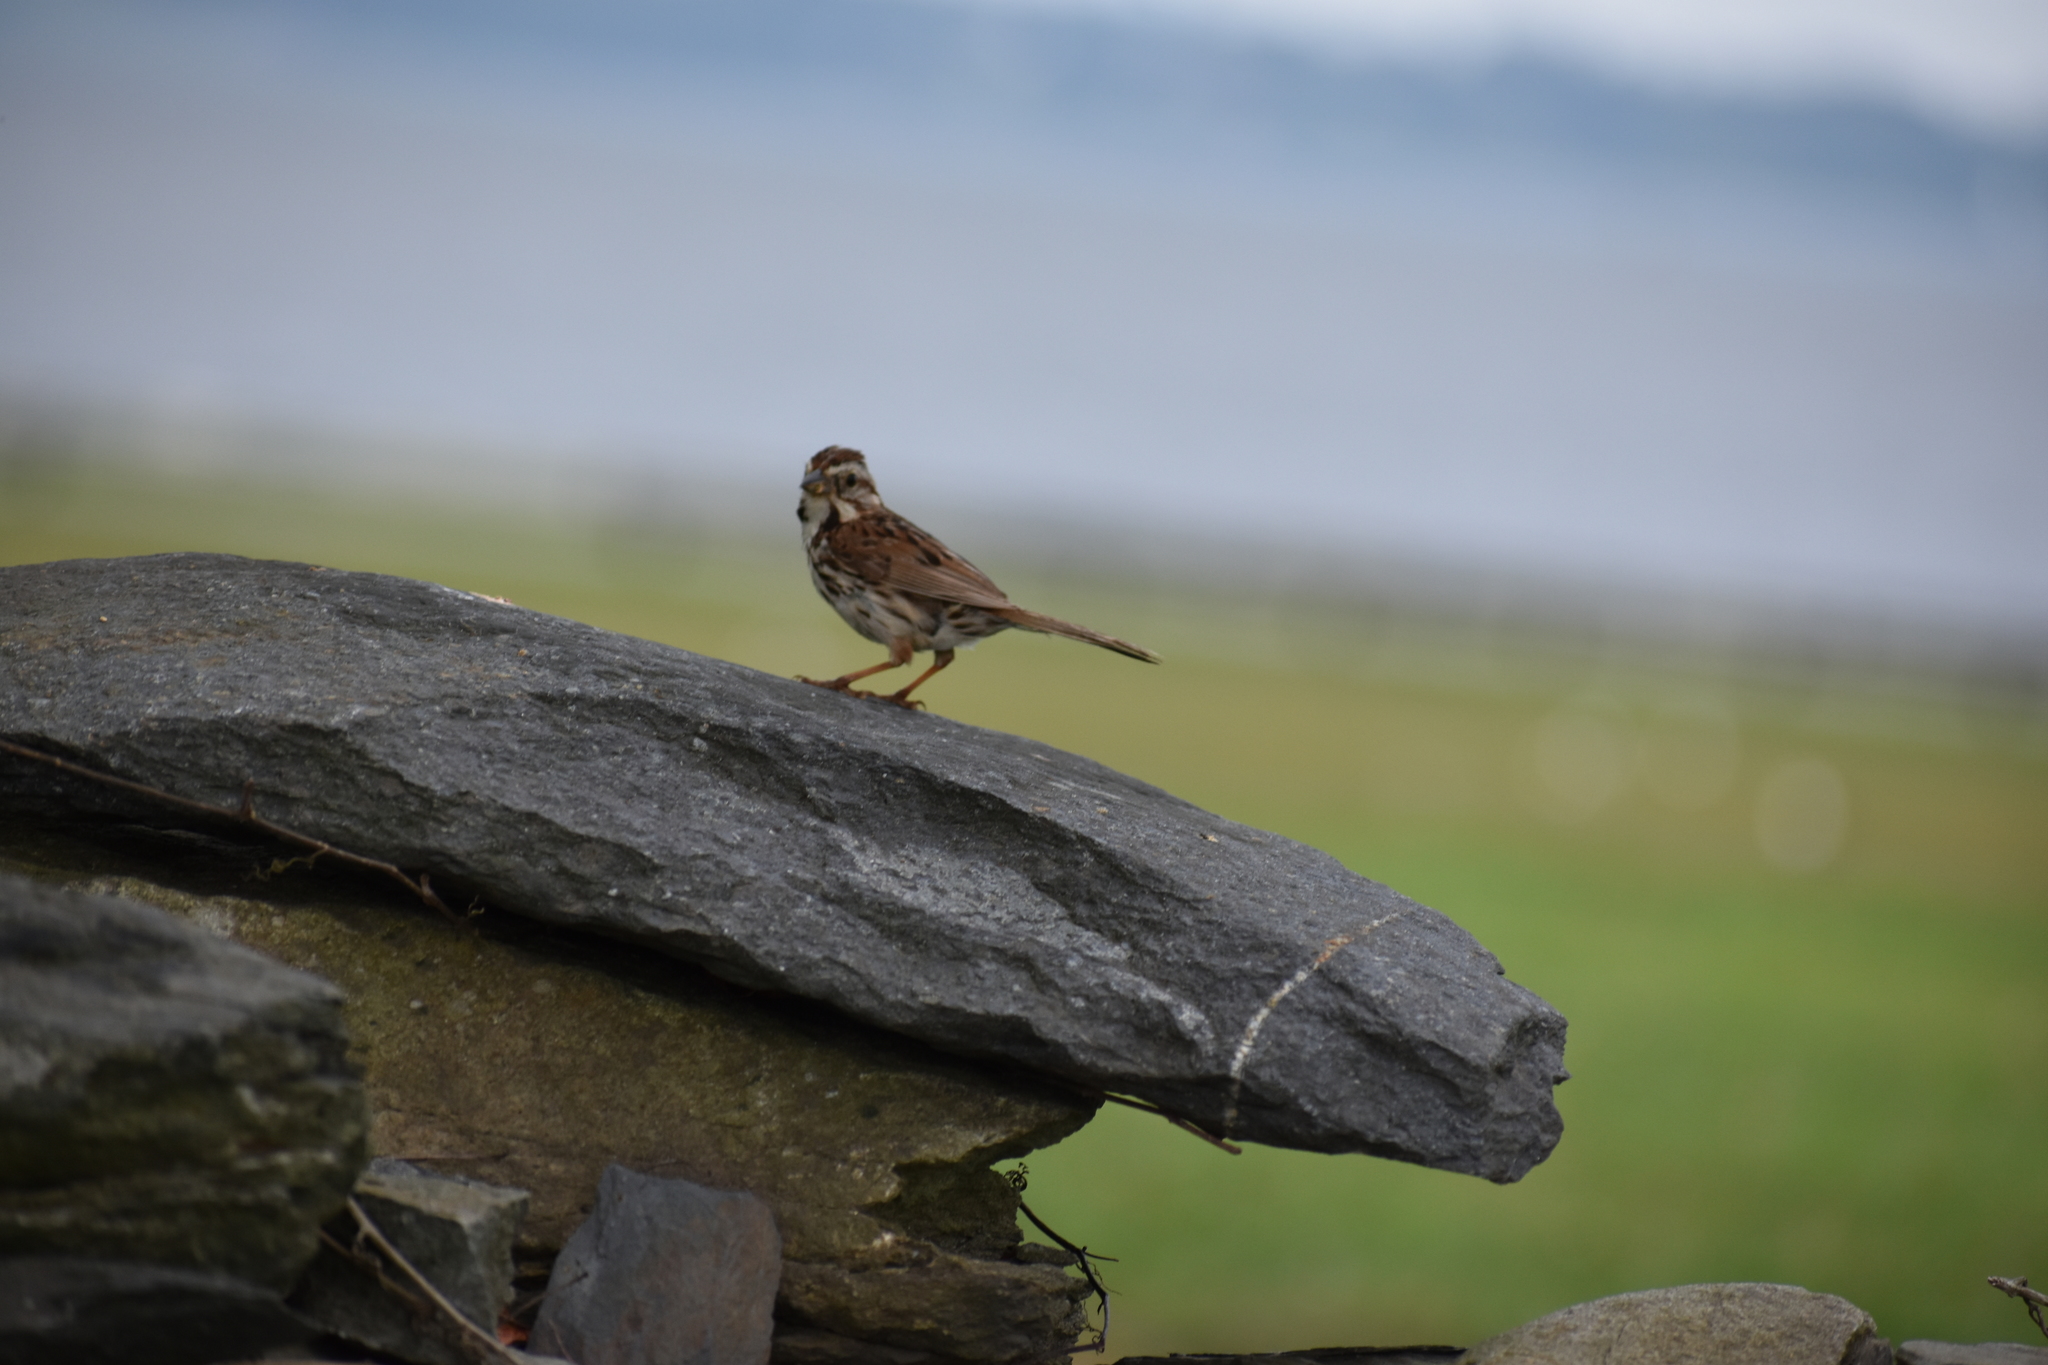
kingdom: Animalia
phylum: Chordata
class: Aves
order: Passeriformes
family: Passerellidae
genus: Melospiza
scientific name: Melospiza melodia
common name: Song sparrow
